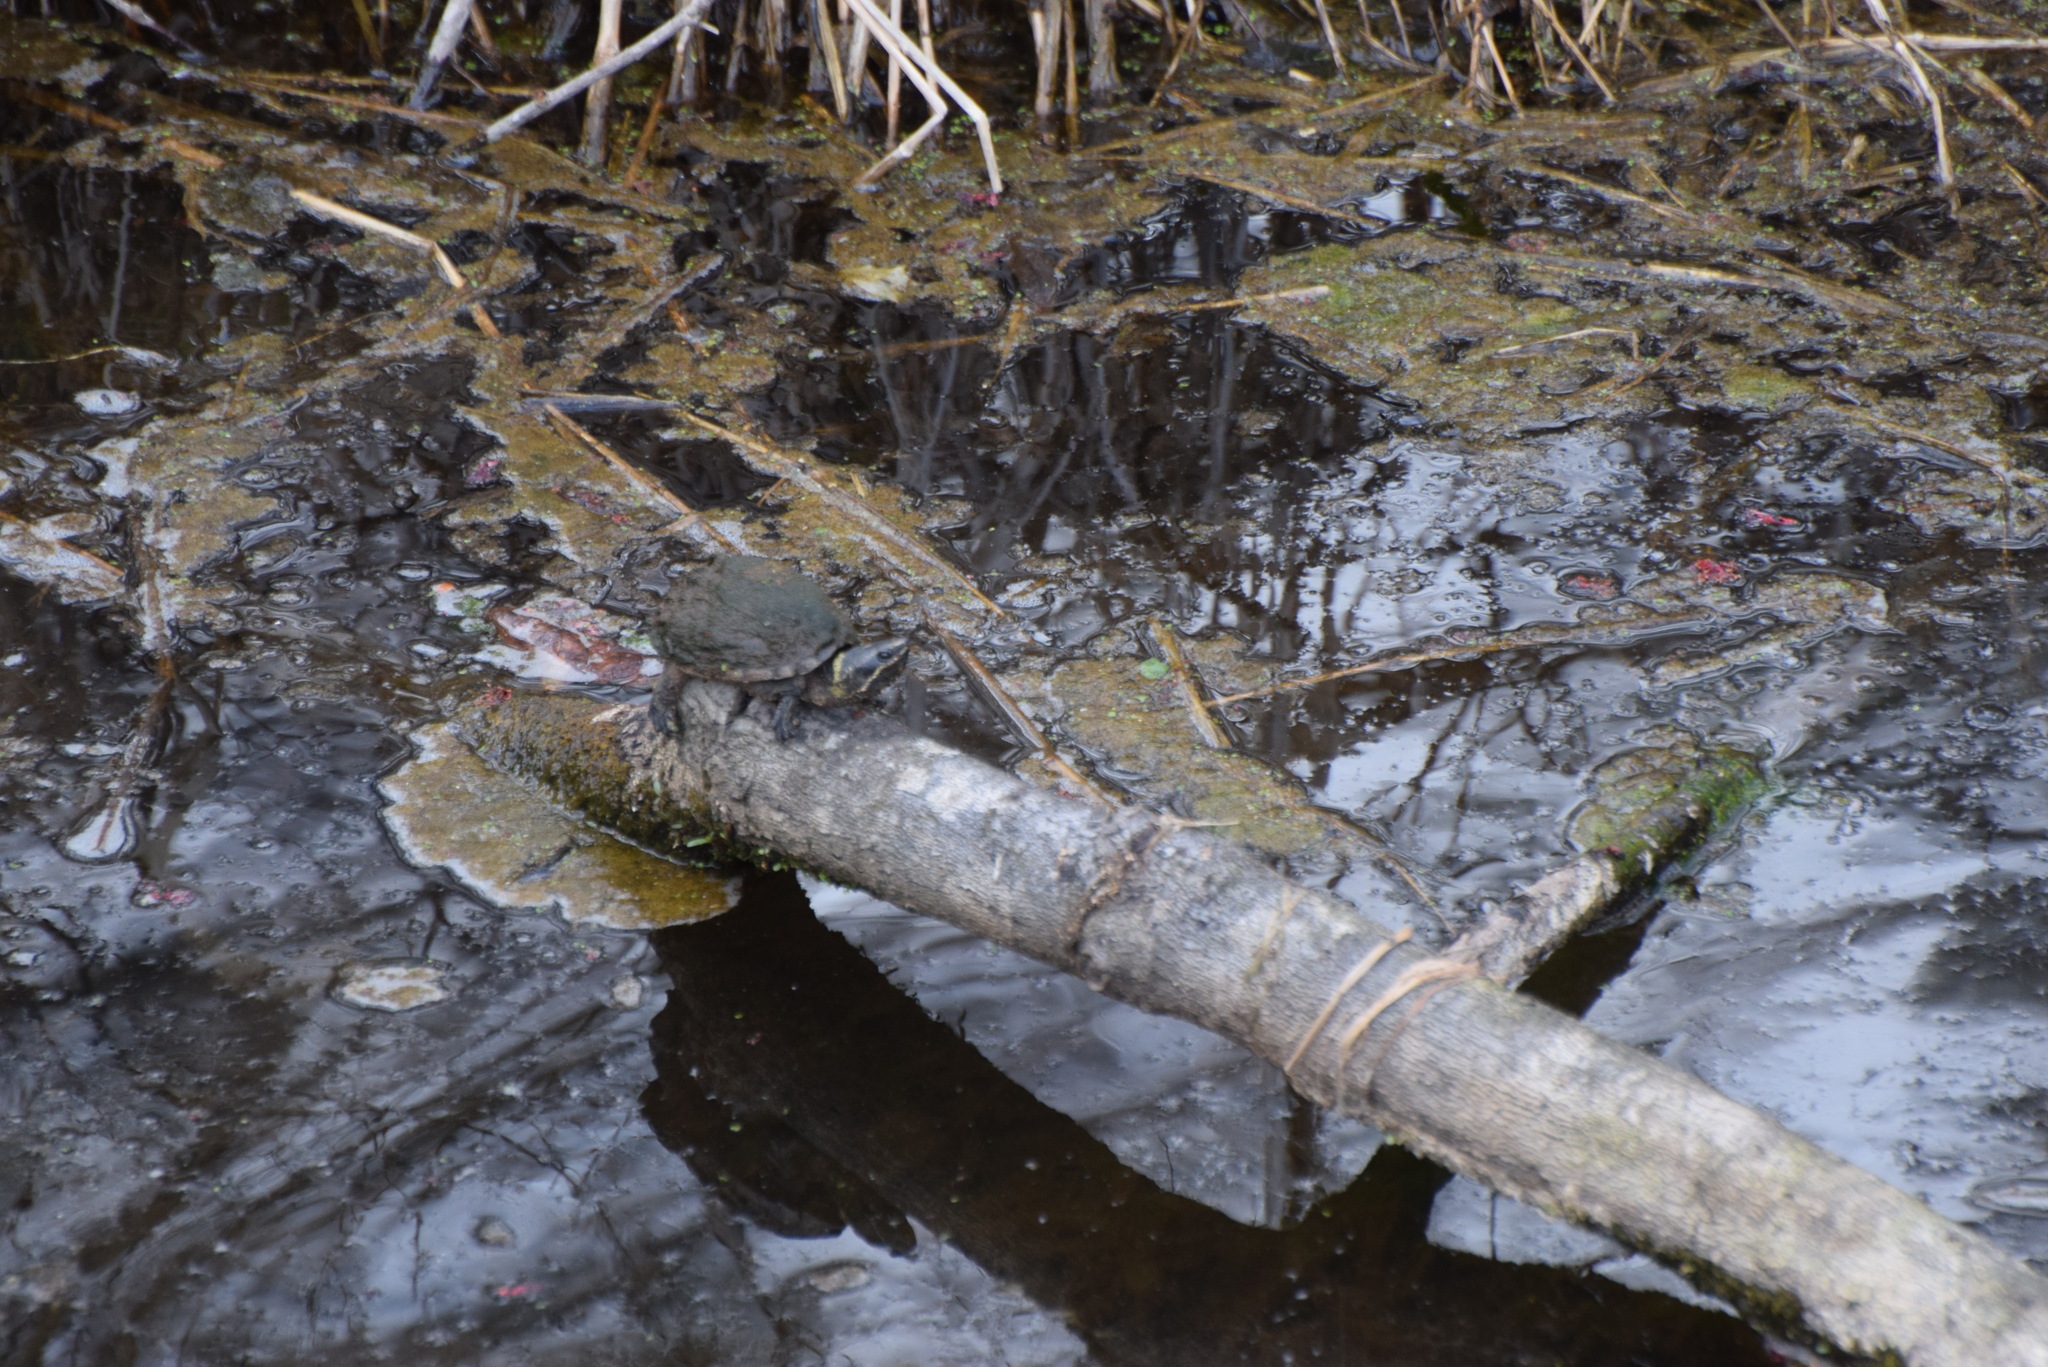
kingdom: Animalia
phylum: Chordata
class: Testudines
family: Kinosternidae
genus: Sternotherus
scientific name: Sternotherus odoratus
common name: Common musk turtle
